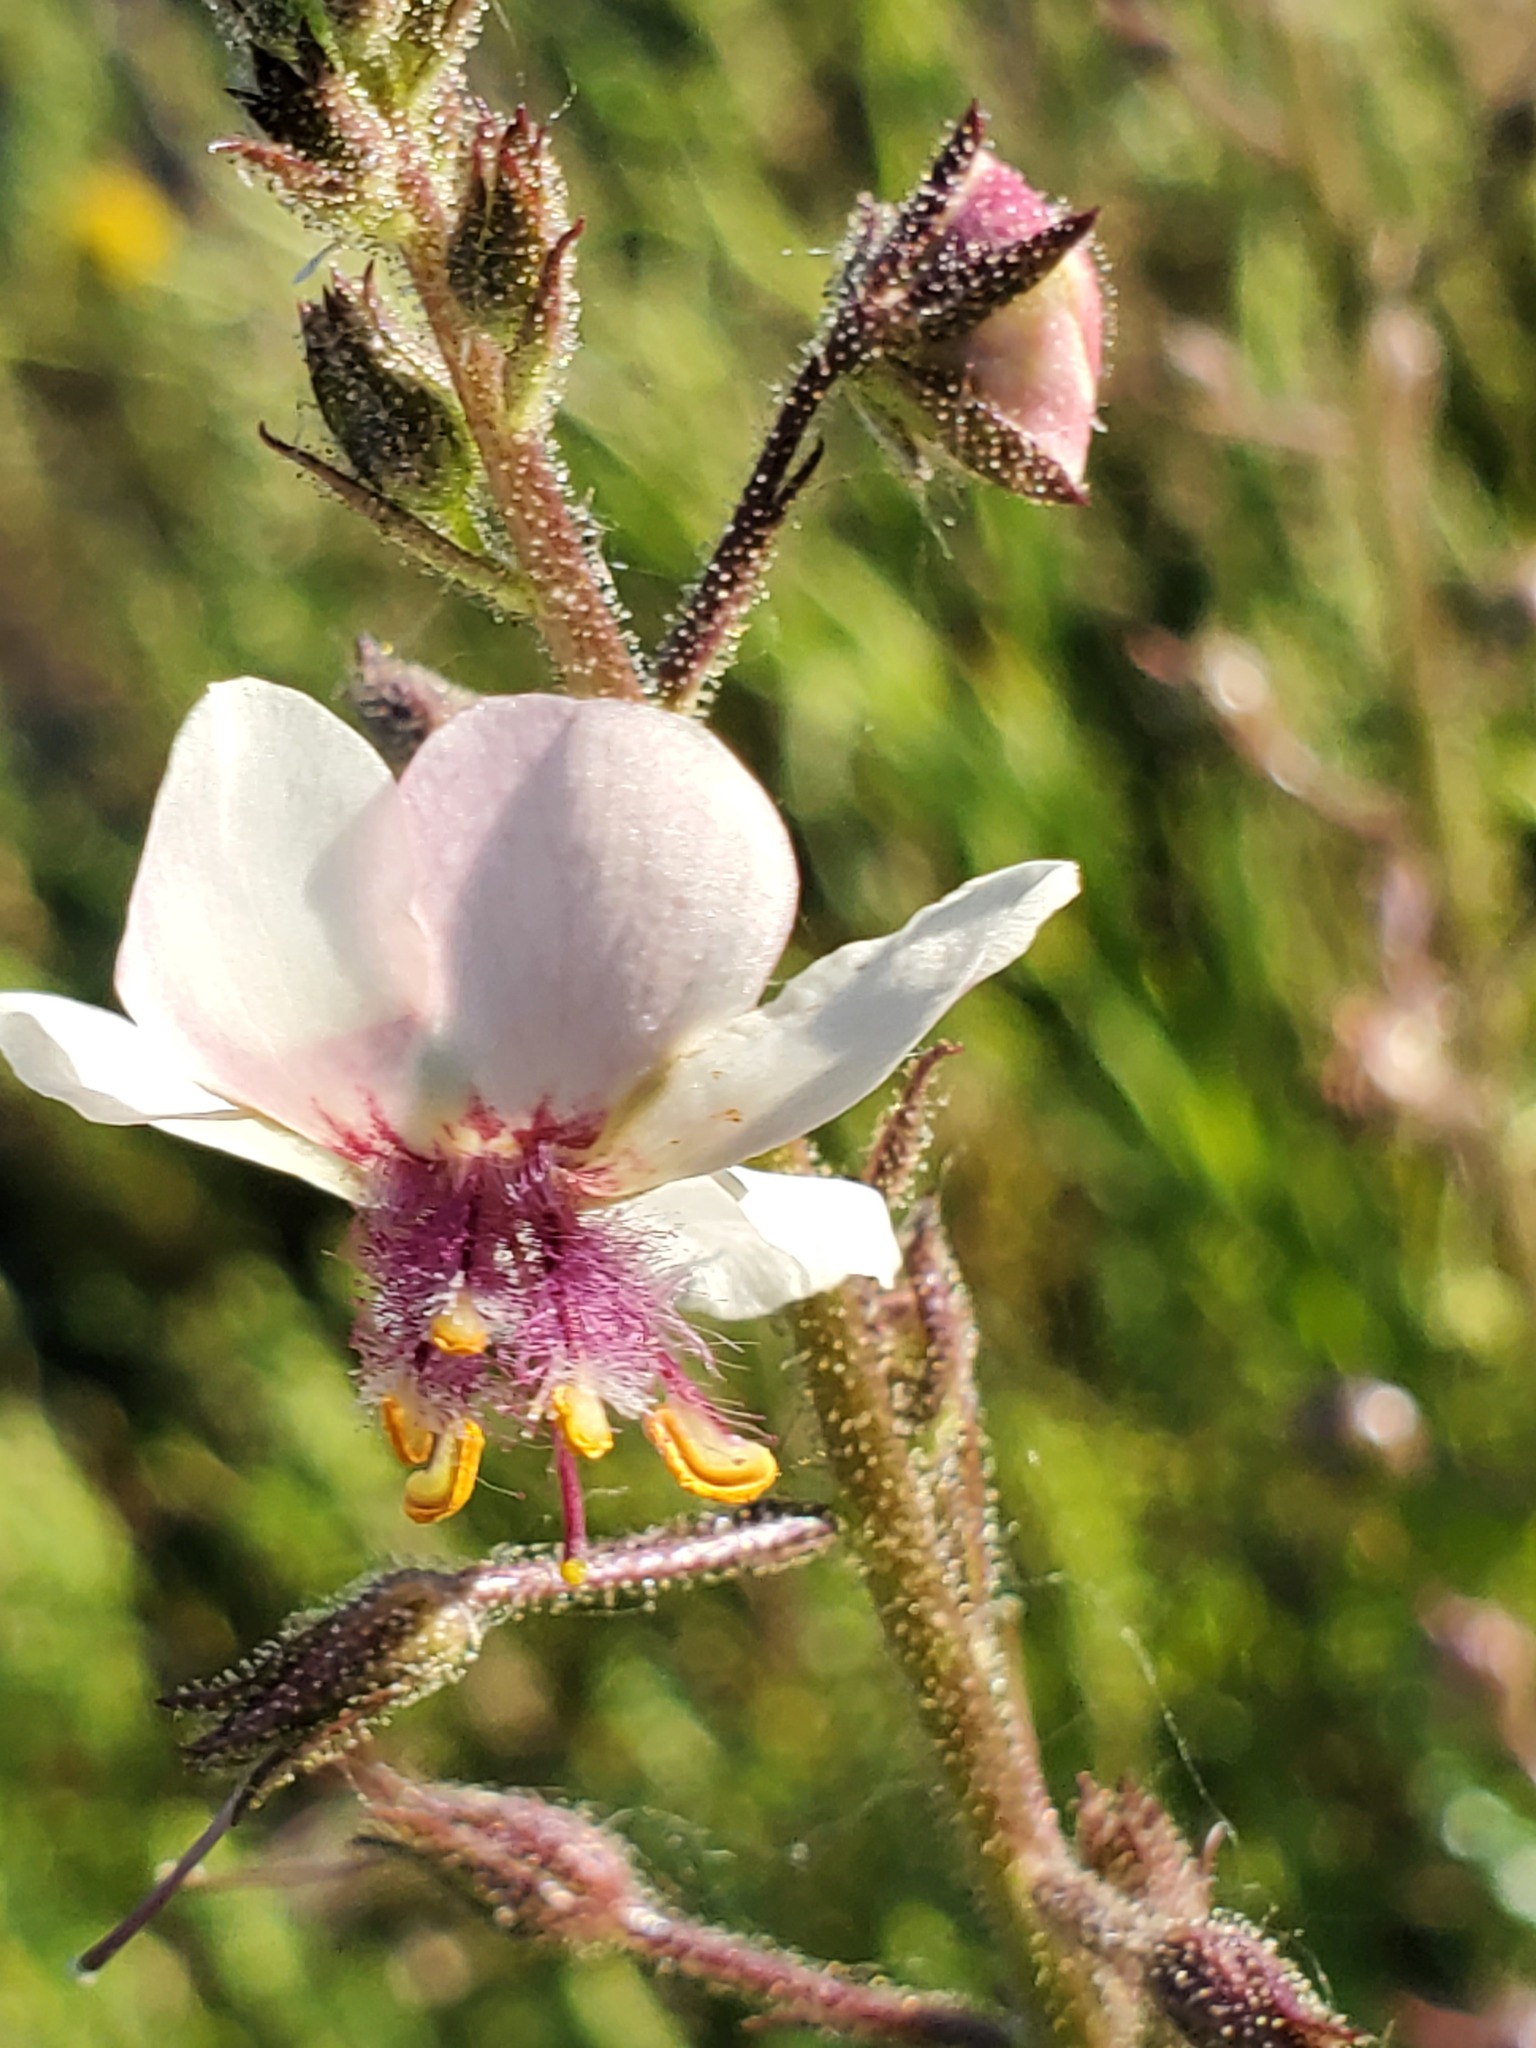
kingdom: Plantae
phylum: Tracheophyta
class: Magnoliopsida
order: Lamiales
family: Scrophulariaceae
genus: Verbascum
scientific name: Verbascum blattaria
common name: Moth mullein
